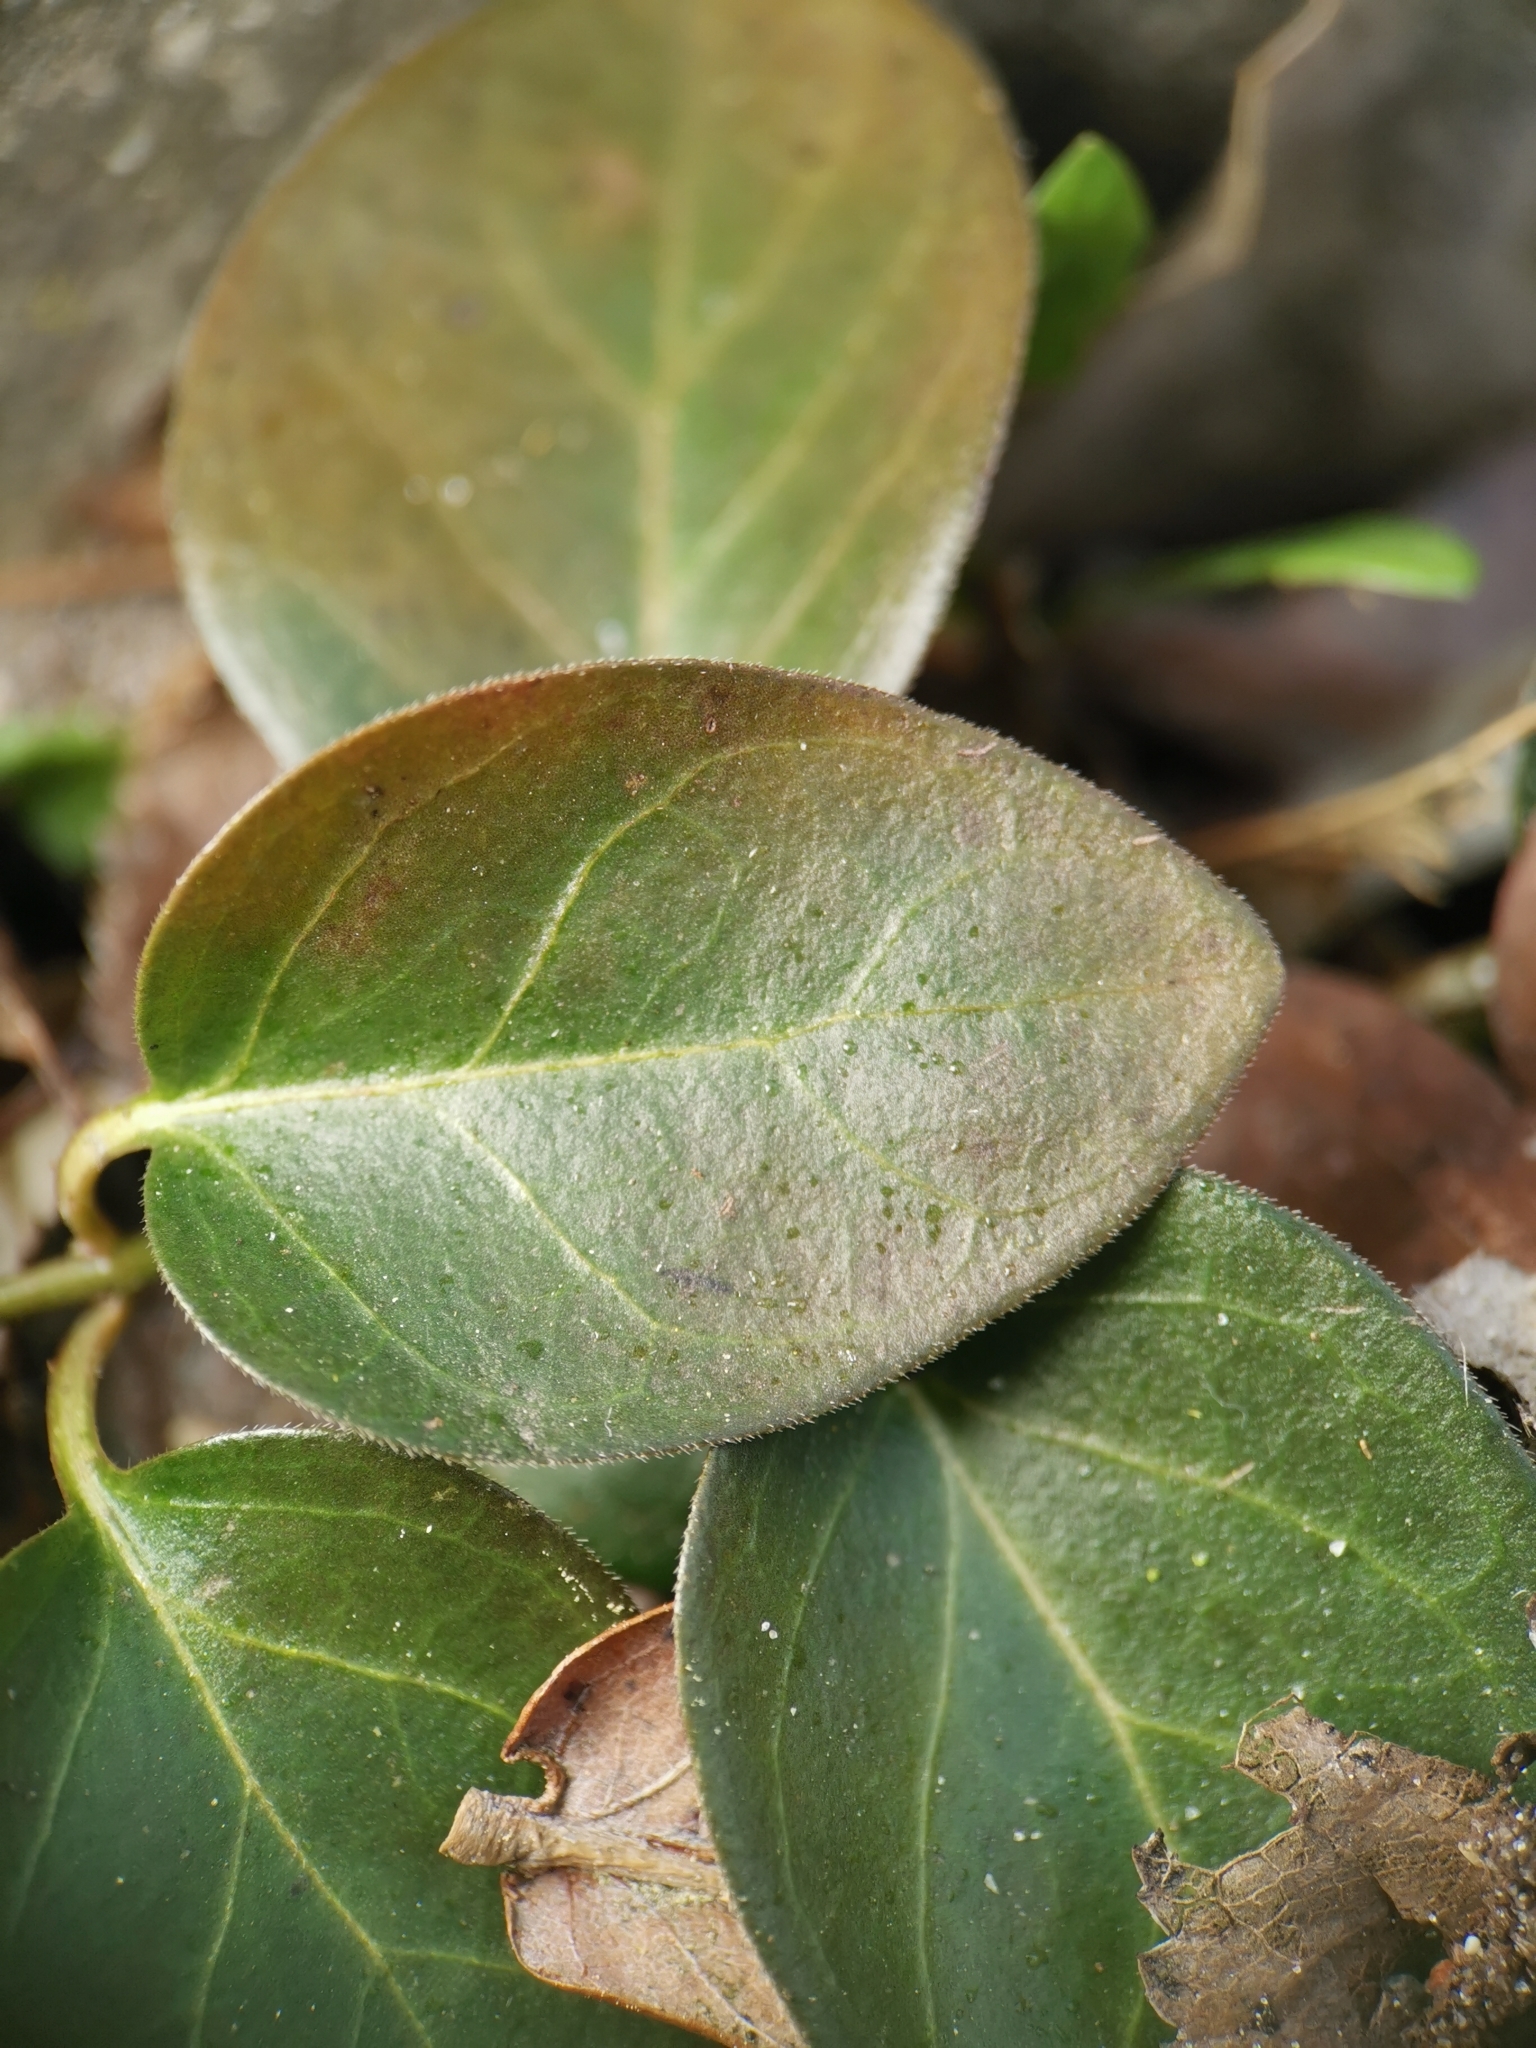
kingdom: Plantae
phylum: Tracheophyta
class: Magnoliopsida
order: Gentianales
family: Apocynaceae
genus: Vinca
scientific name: Vinca major
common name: Greater periwinkle
